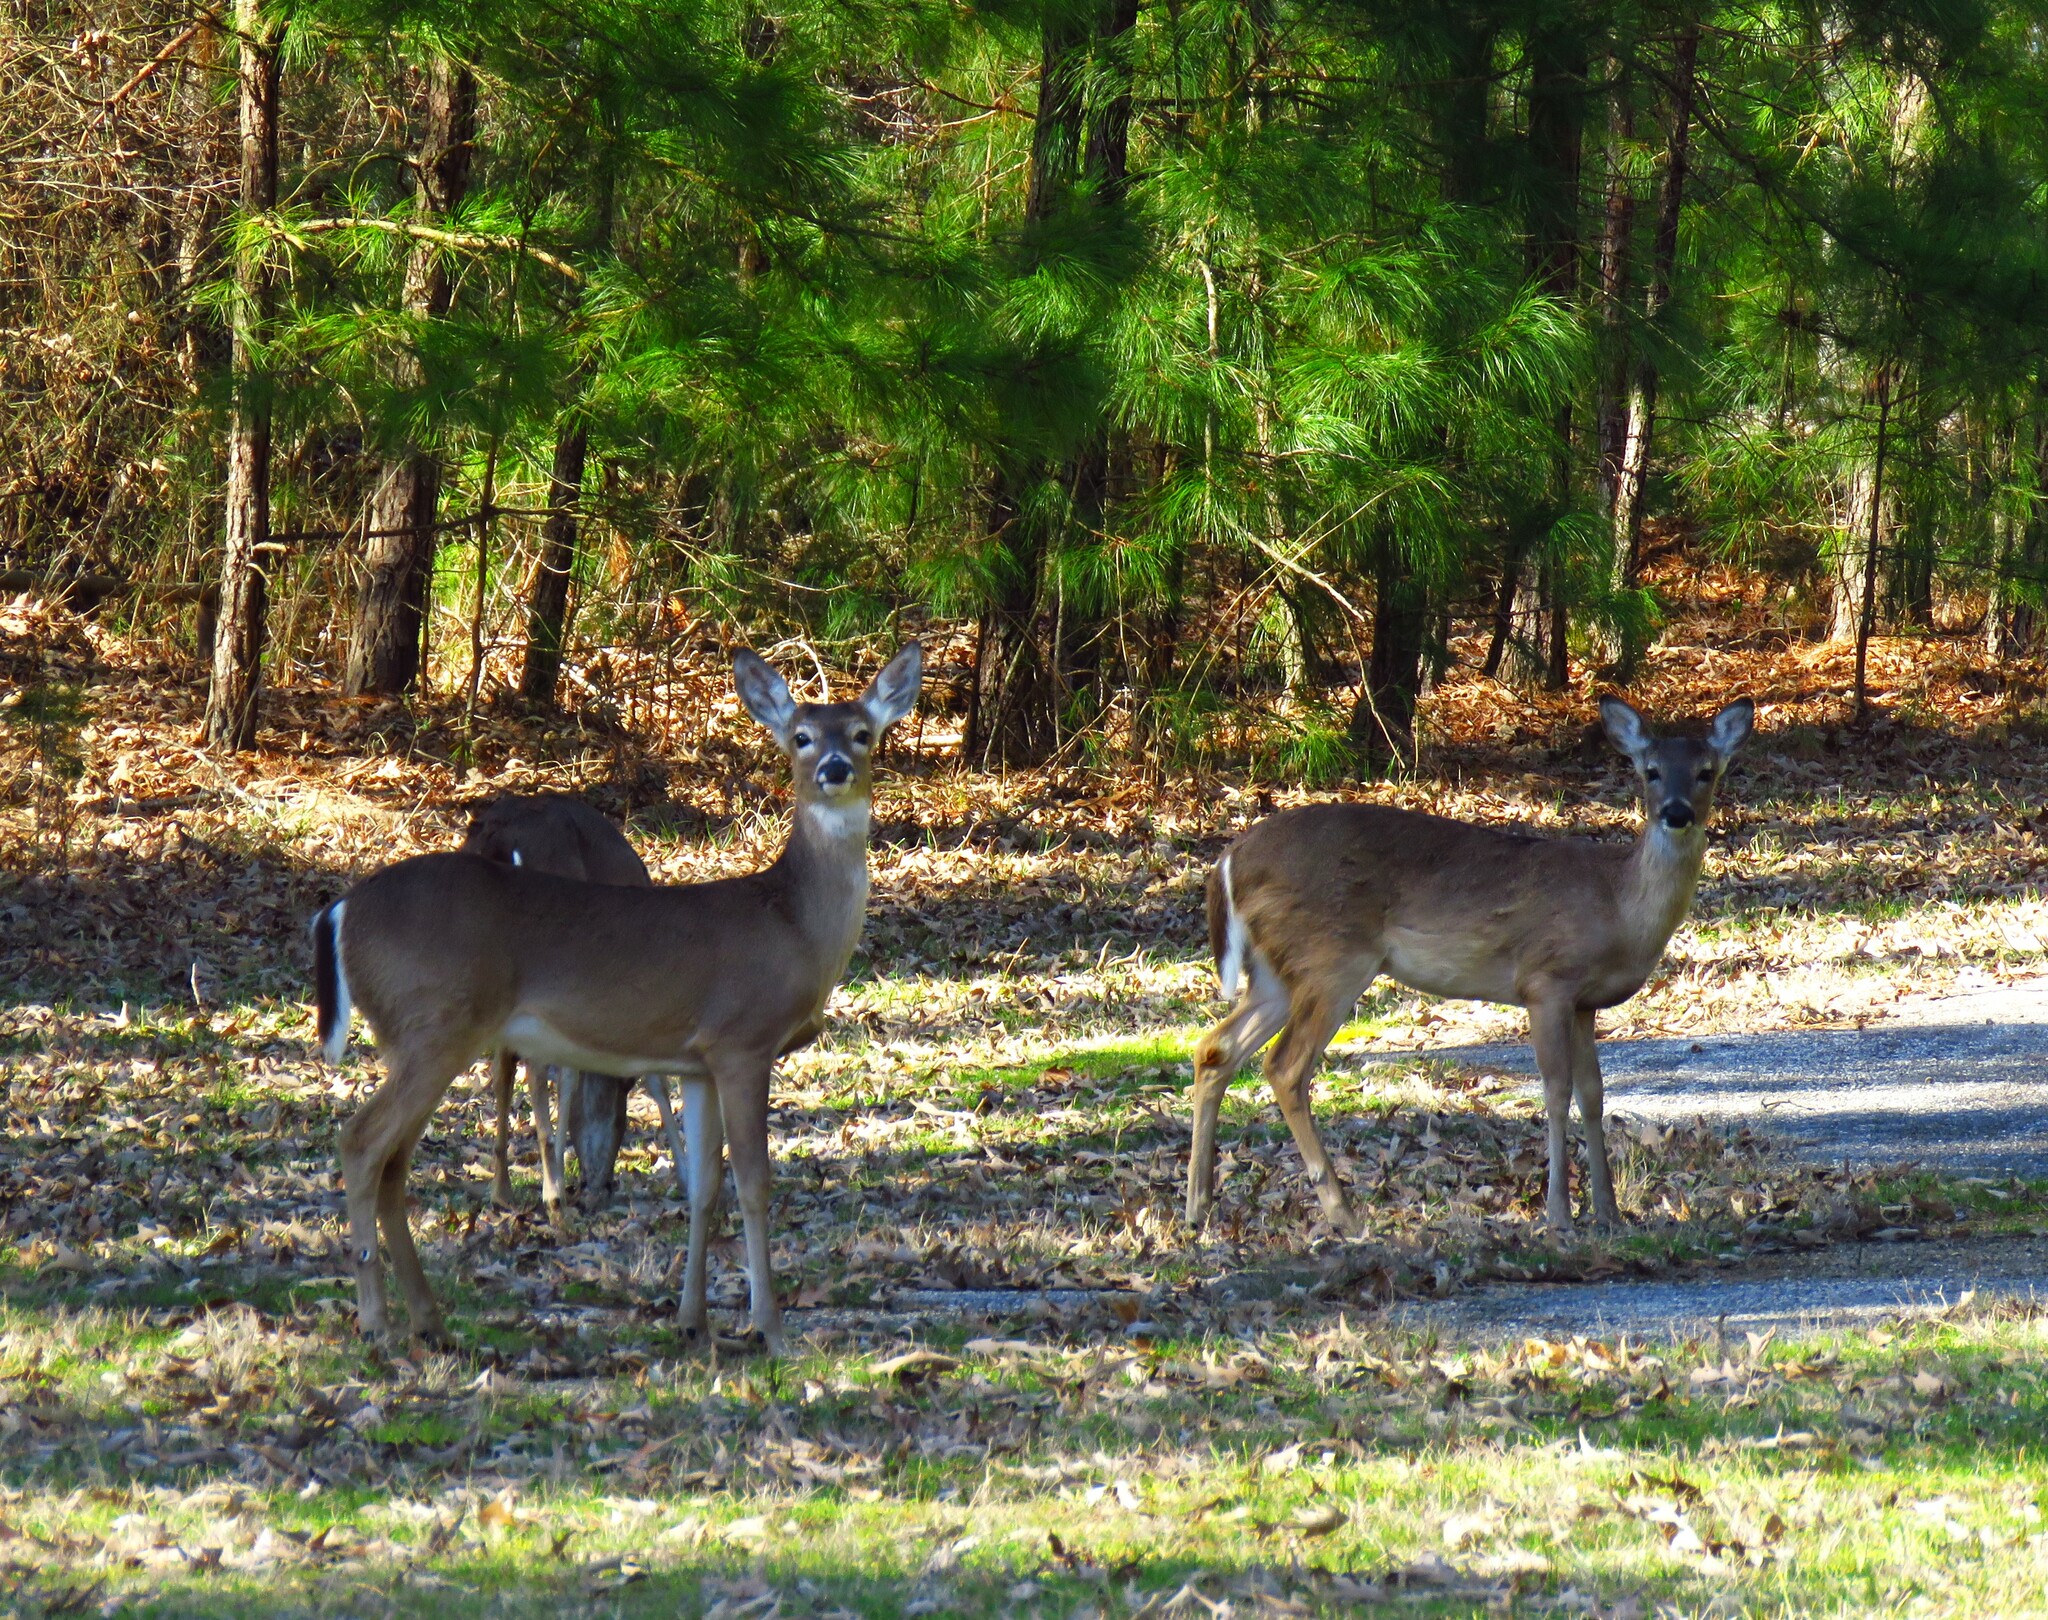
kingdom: Animalia
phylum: Chordata
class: Mammalia
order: Artiodactyla
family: Cervidae
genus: Odocoileus
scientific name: Odocoileus virginianus
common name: White-tailed deer
